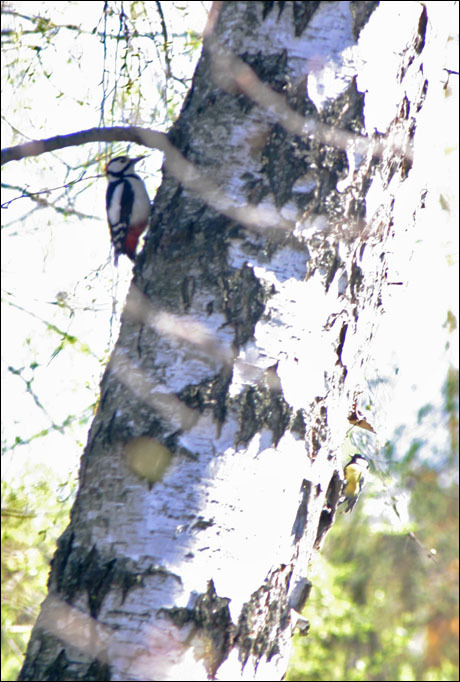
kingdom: Animalia
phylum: Chordata
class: Aves
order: Piciformes
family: Picidae
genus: Dendrocopos
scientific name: Dendrocopos major
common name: Great spotted woodpecker
